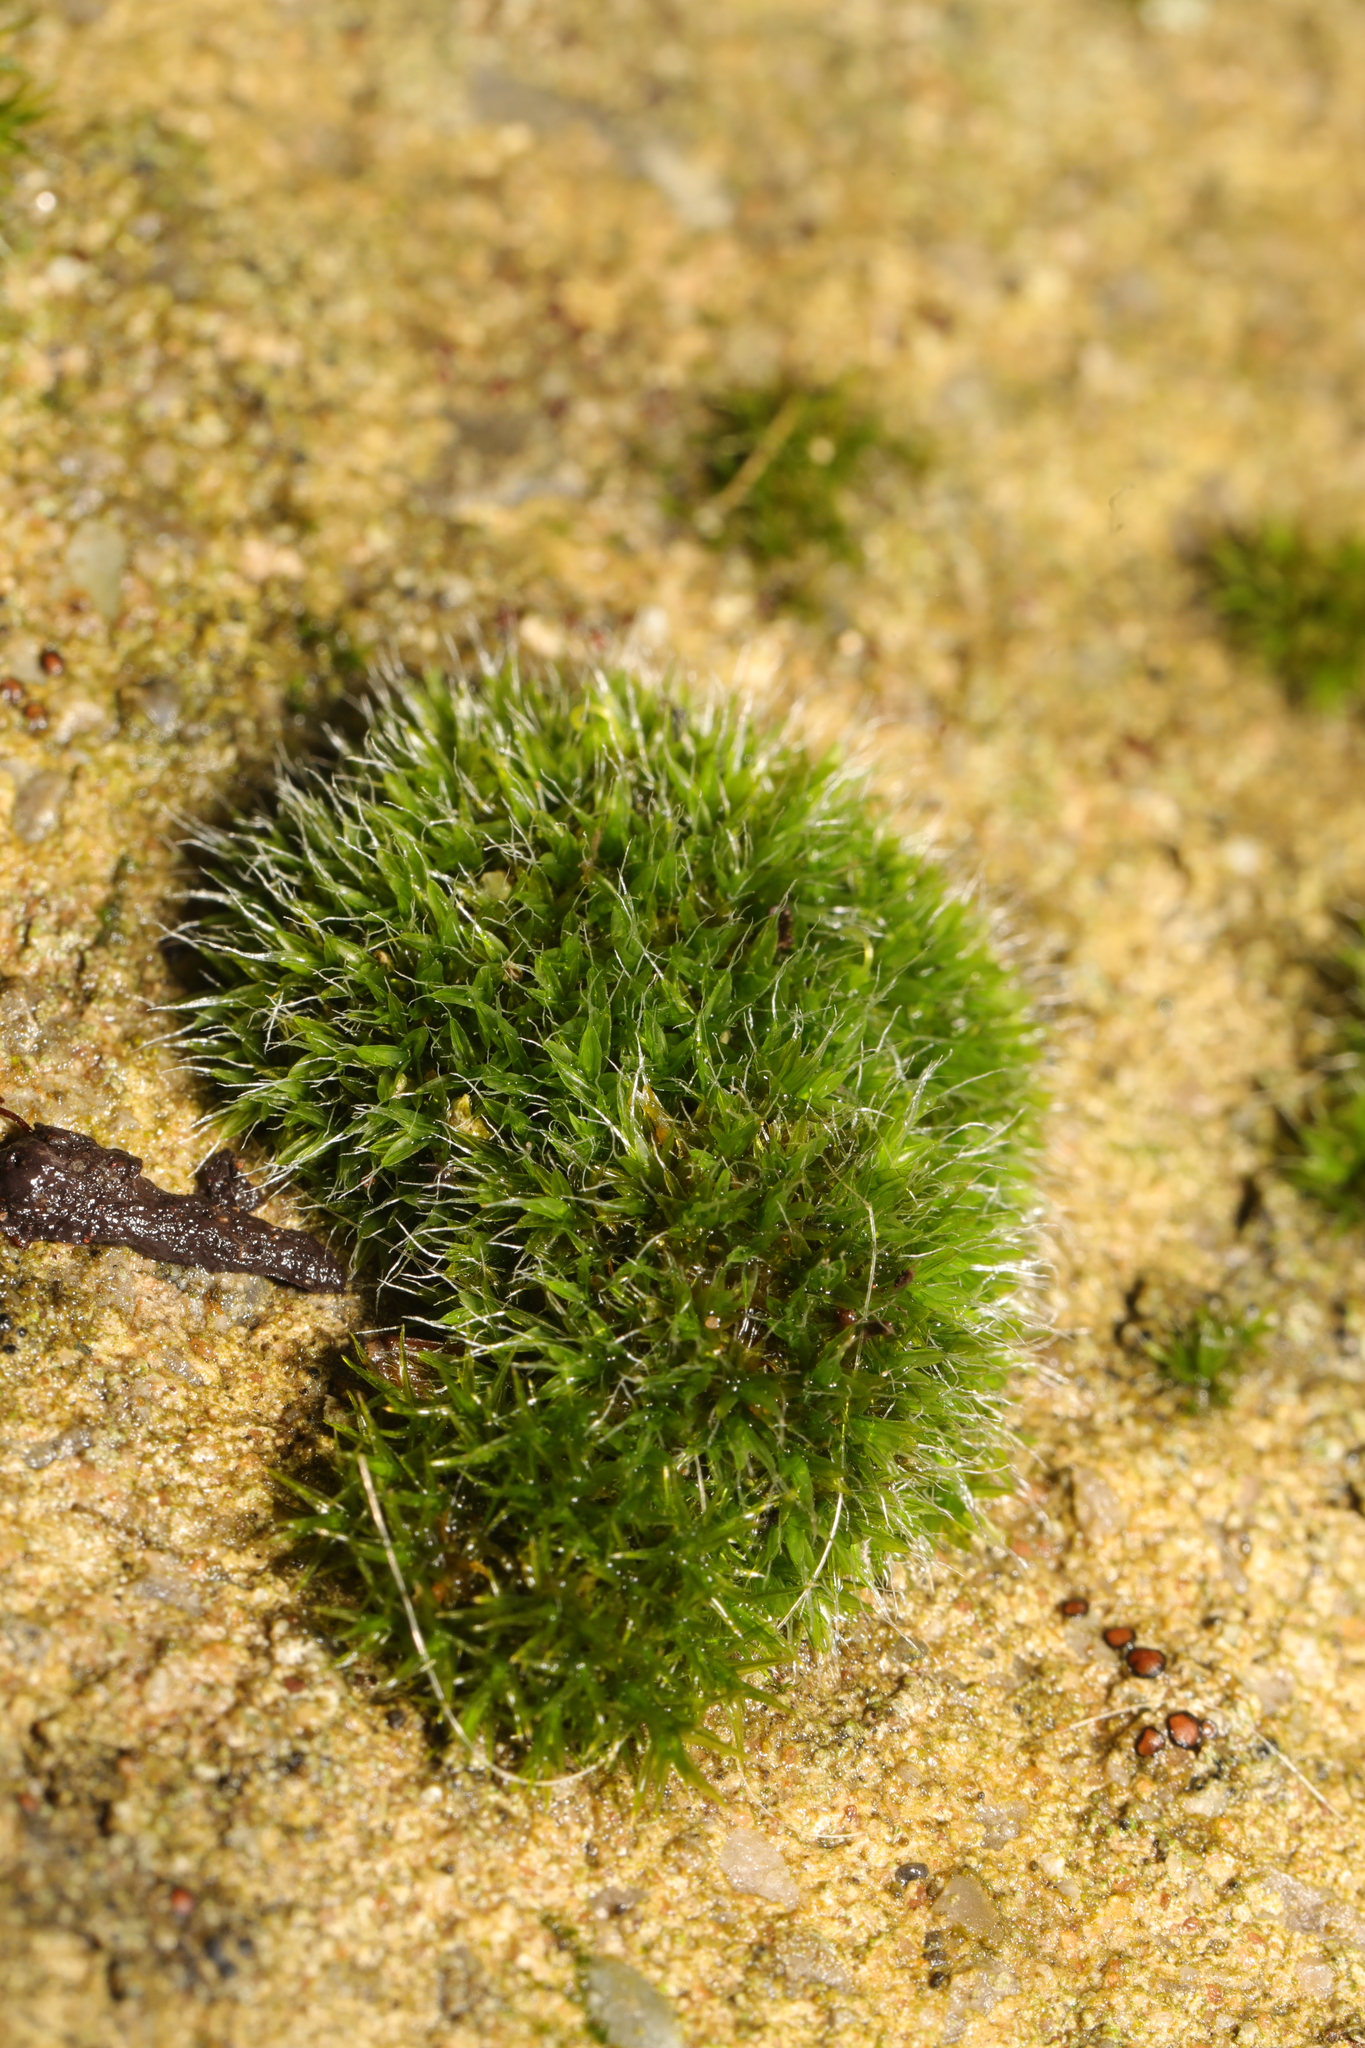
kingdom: Plantae
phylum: Bryophyta
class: Bryopsida
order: Grimmiales
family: Grimmiaceae
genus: Grimmia
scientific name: Grimmia pulvinata
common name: Grey-cushioned grimmia
